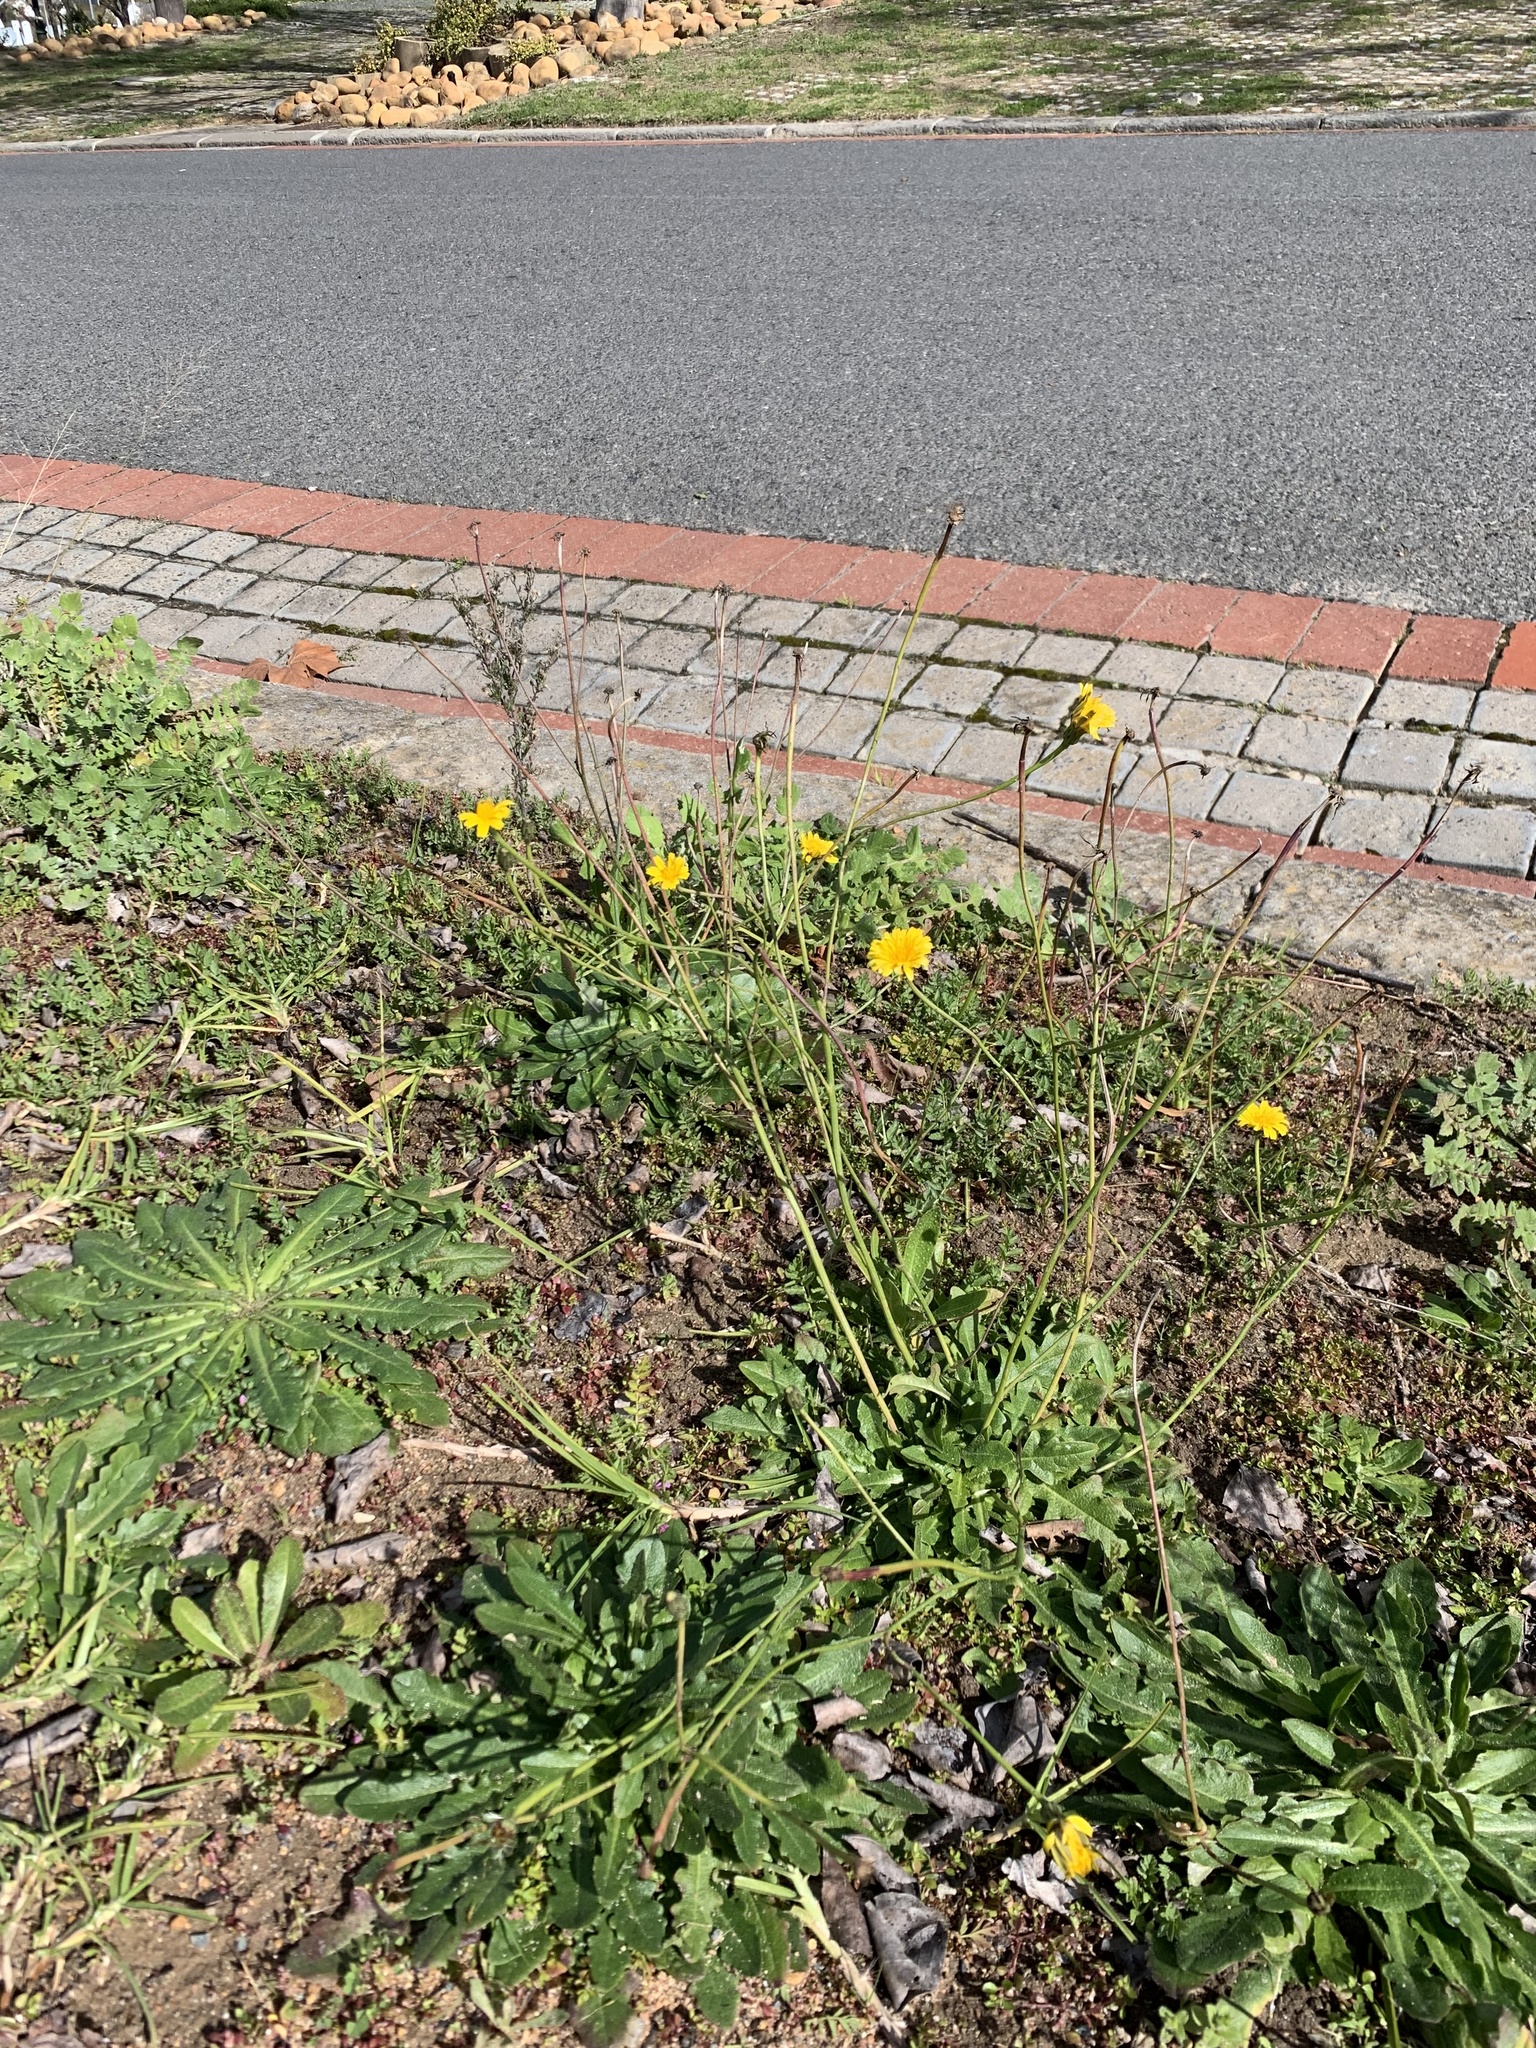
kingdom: Plantae
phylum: Tracheophyta
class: Magnoliopsida
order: Asterales
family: Asteraceae
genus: Hypochaeris
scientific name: Hypochaeris radicata
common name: Flatweed
